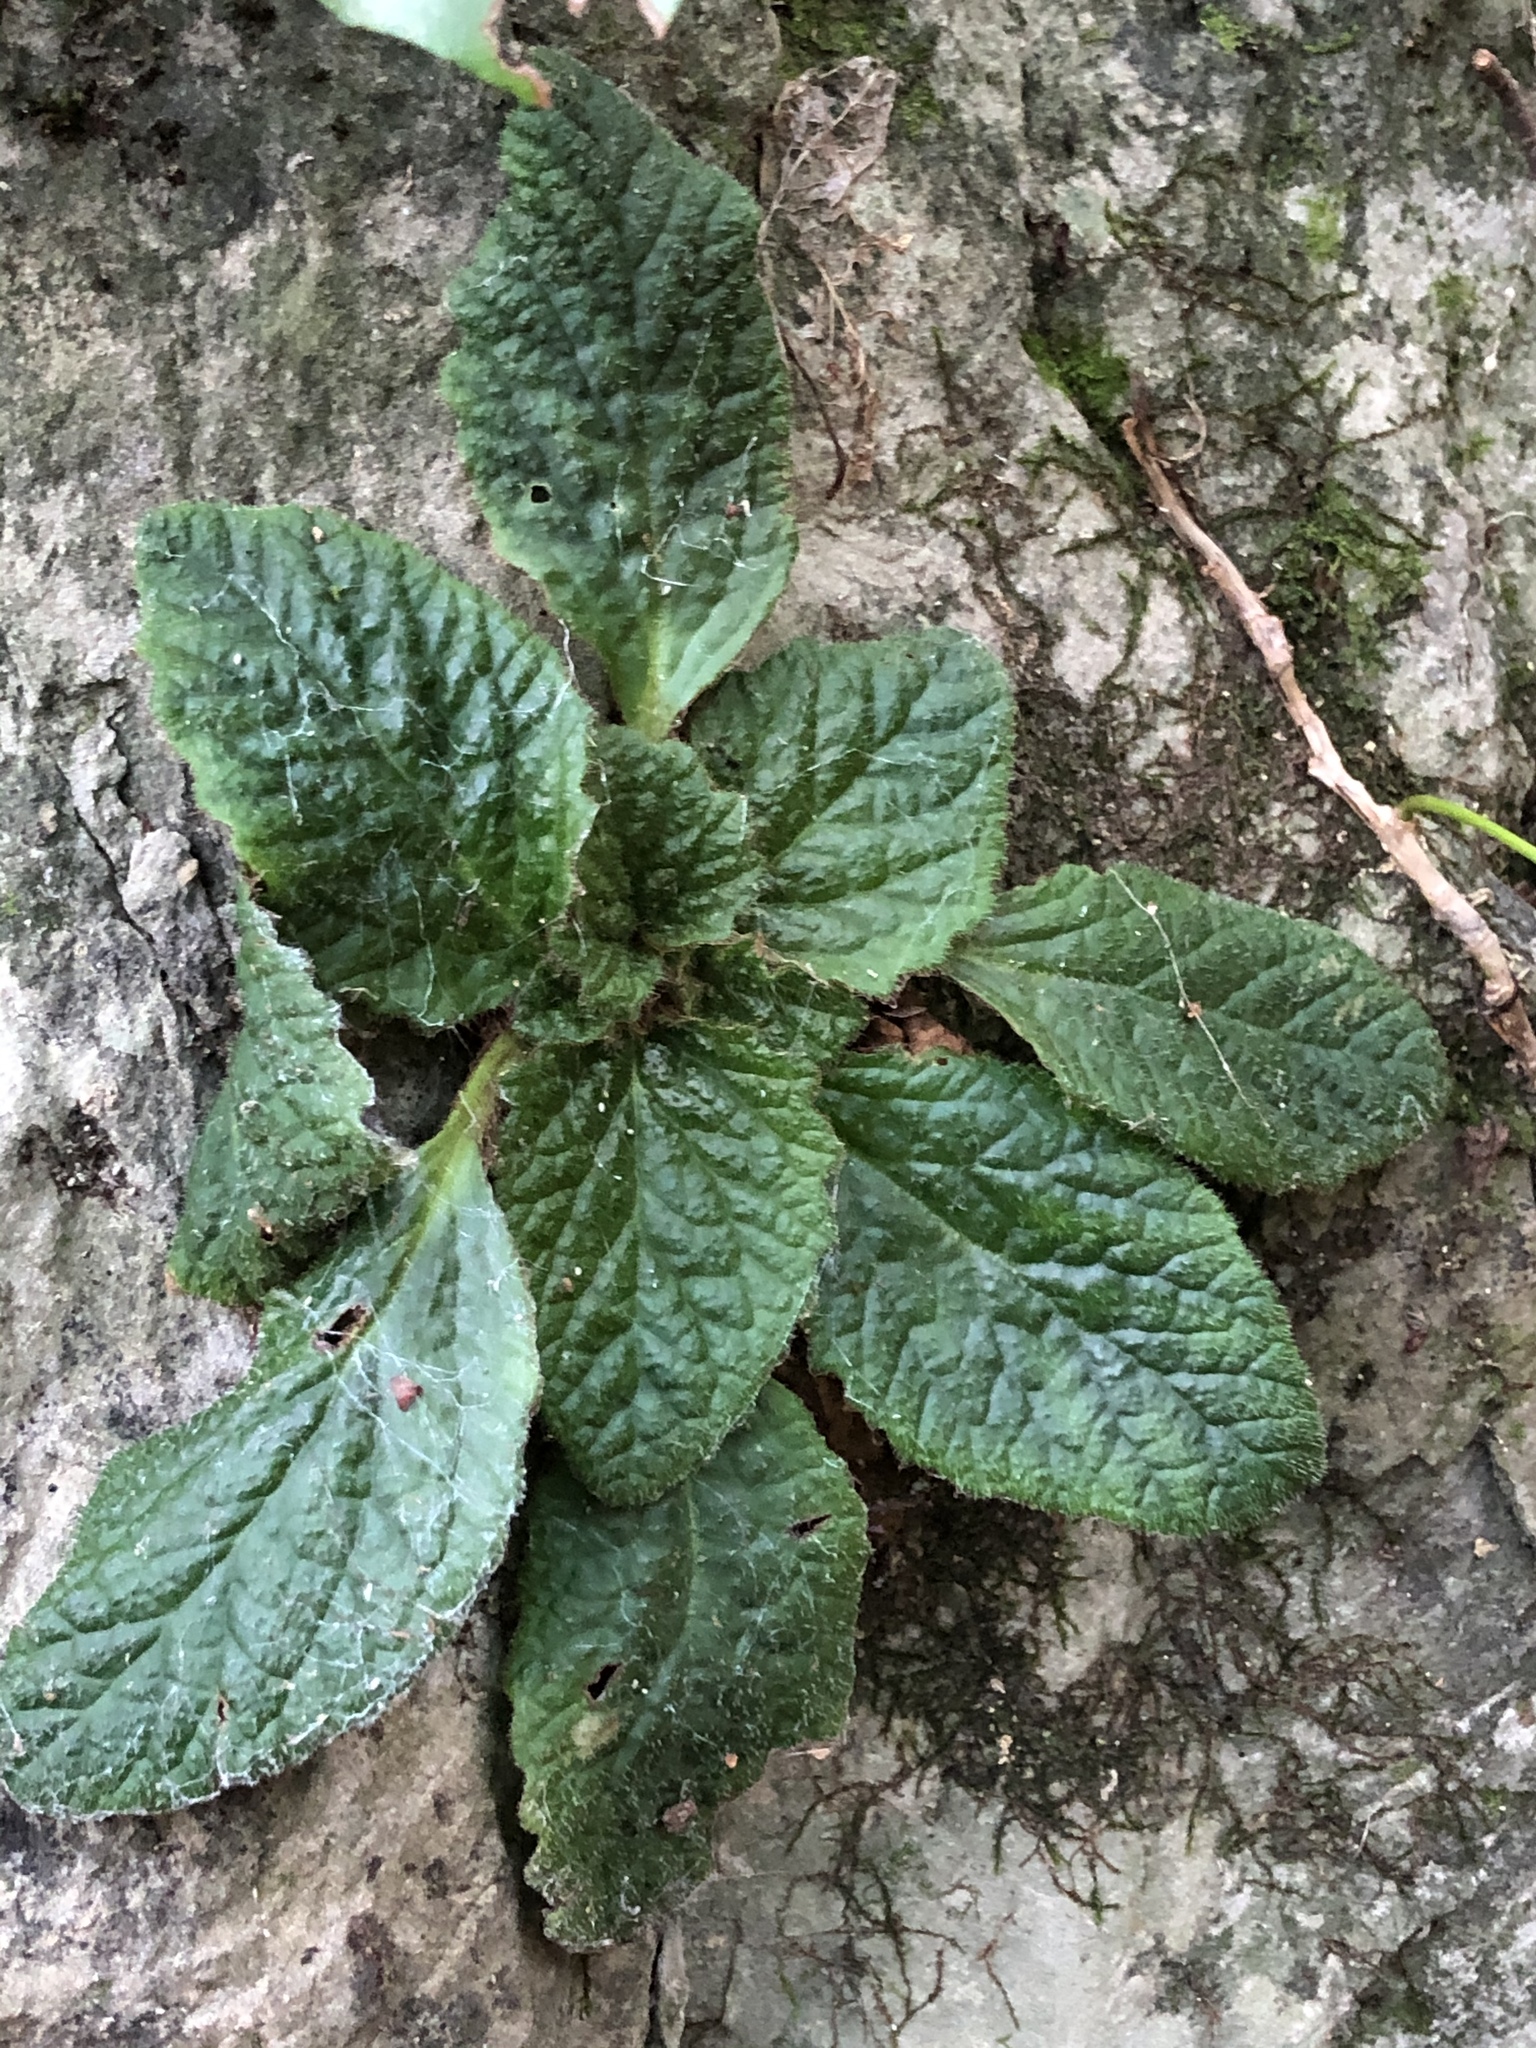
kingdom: Plantae
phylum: Tracheophyta
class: Magnoliopsida
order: Lamiales
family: Gesneriaceae
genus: Ramonda
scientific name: Ramonda myconi
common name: Pyrenean-violet
